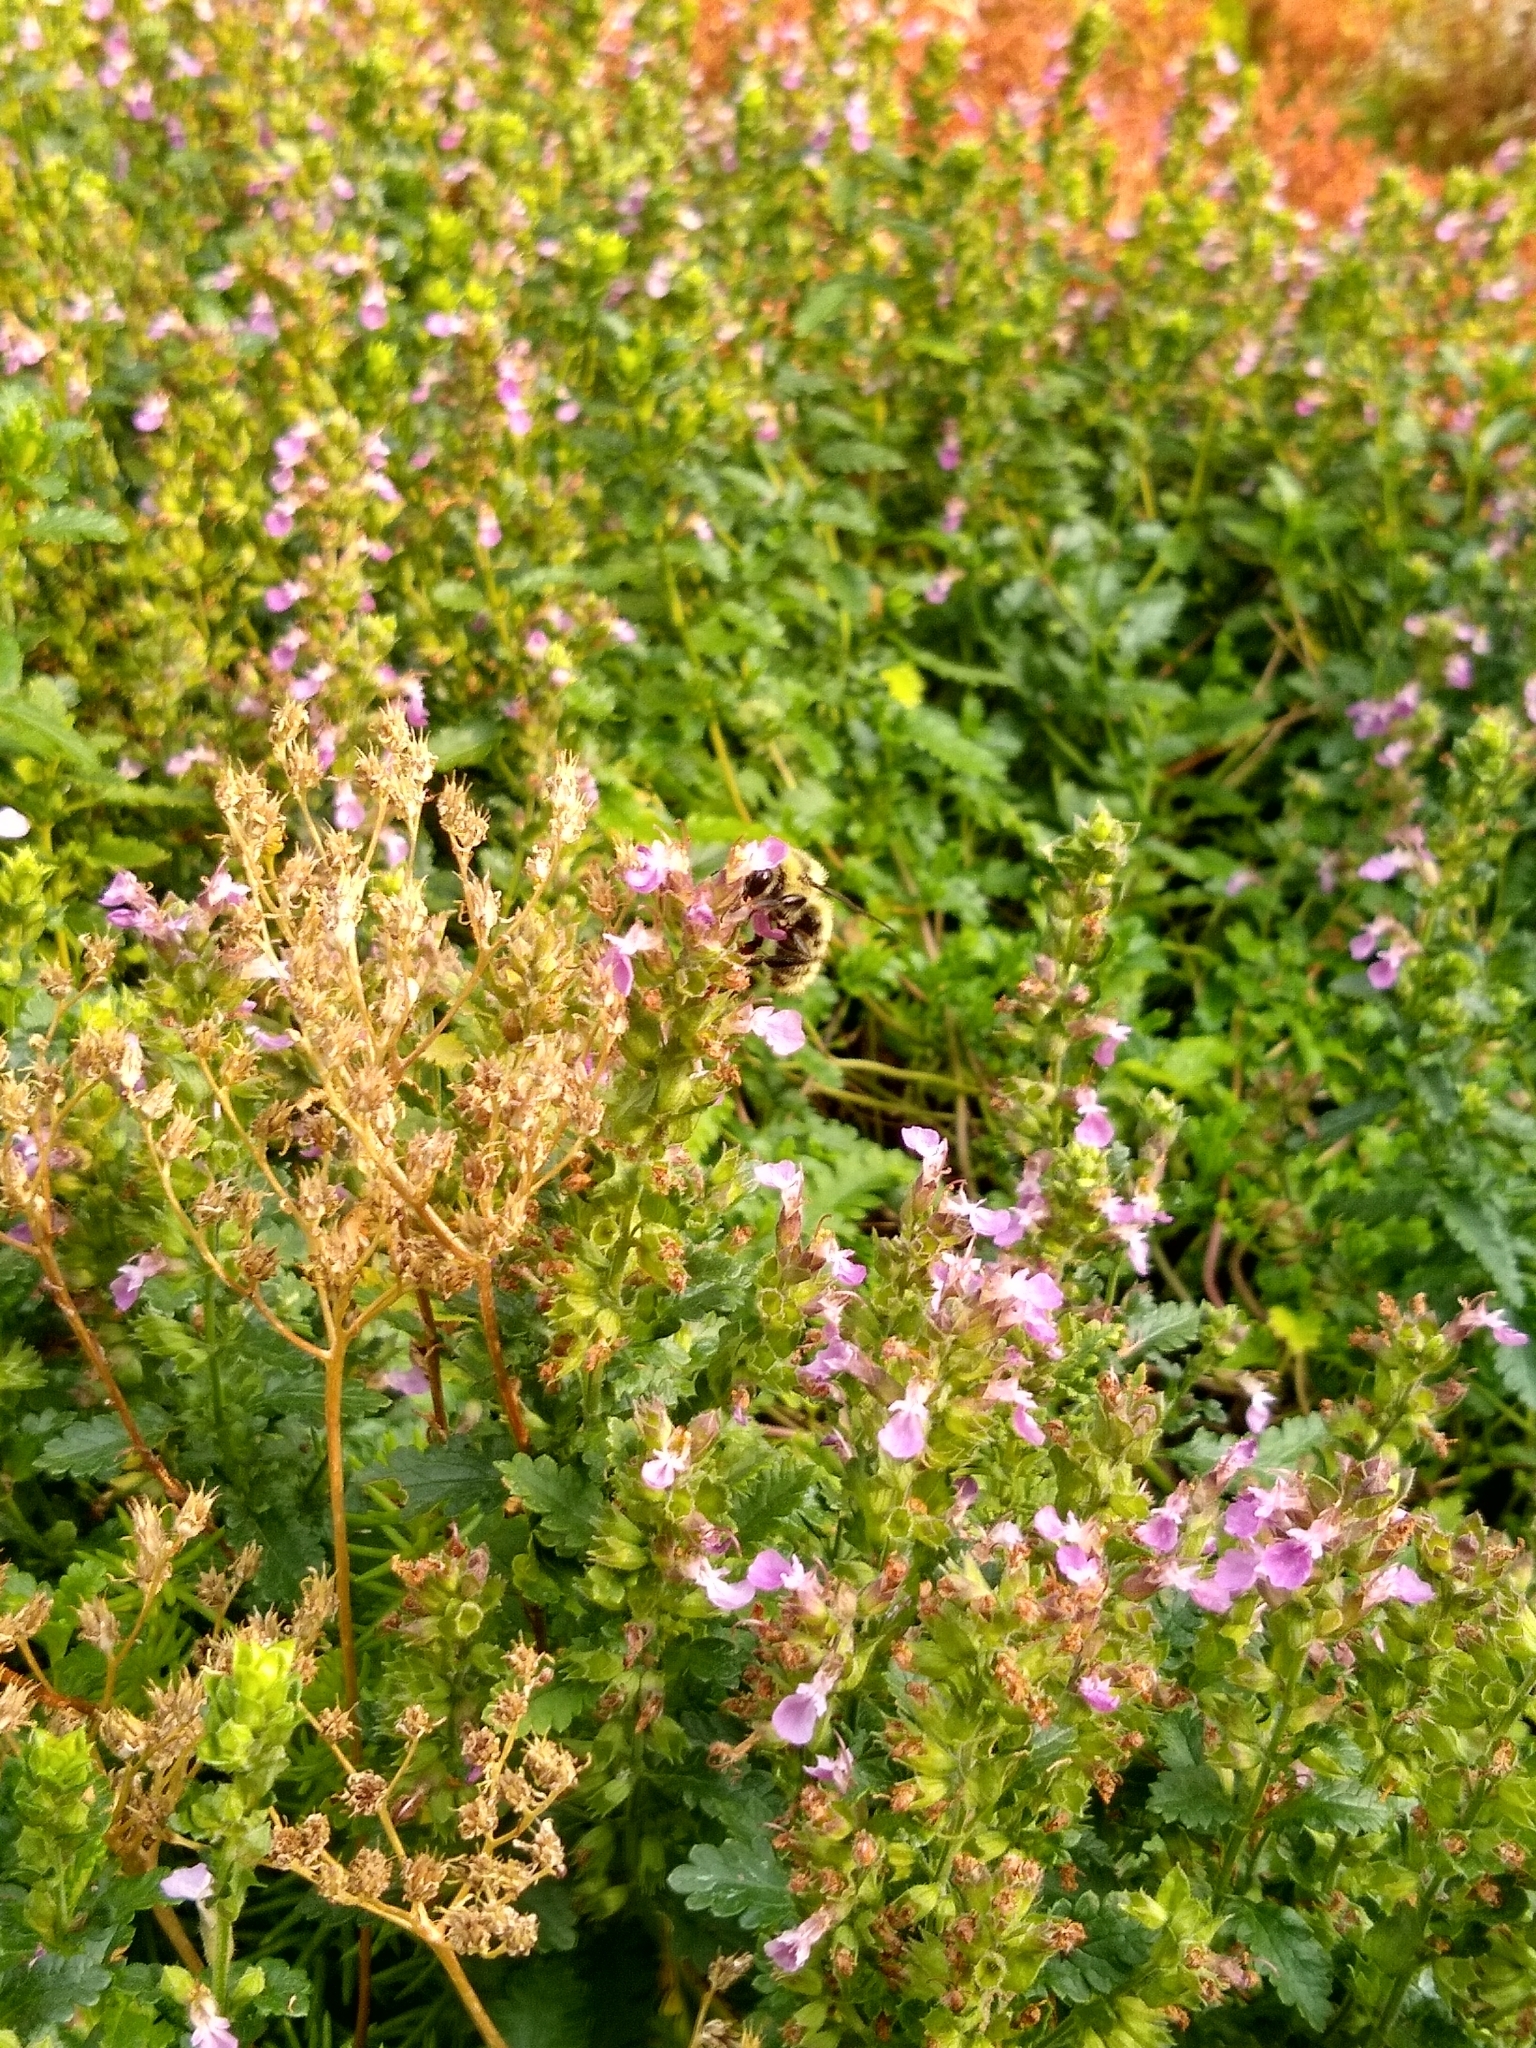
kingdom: Animalia
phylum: Arthropoda
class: Insecta
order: Hymenoptera
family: Apidae
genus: Apis
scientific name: Apis mellifera
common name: Honey bee
